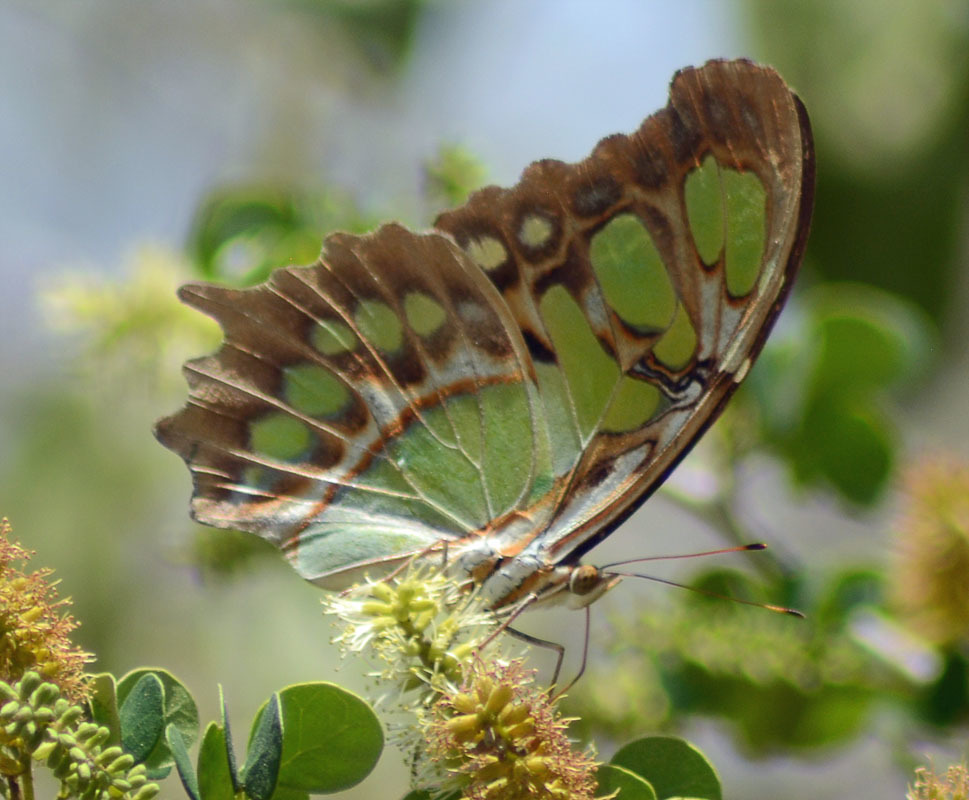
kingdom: Animalia
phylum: Arthropoda
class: Insecta
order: Lepidoptera
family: Nymphalidae
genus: Siproeta
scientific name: Siproeta stelenes
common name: Malachite
